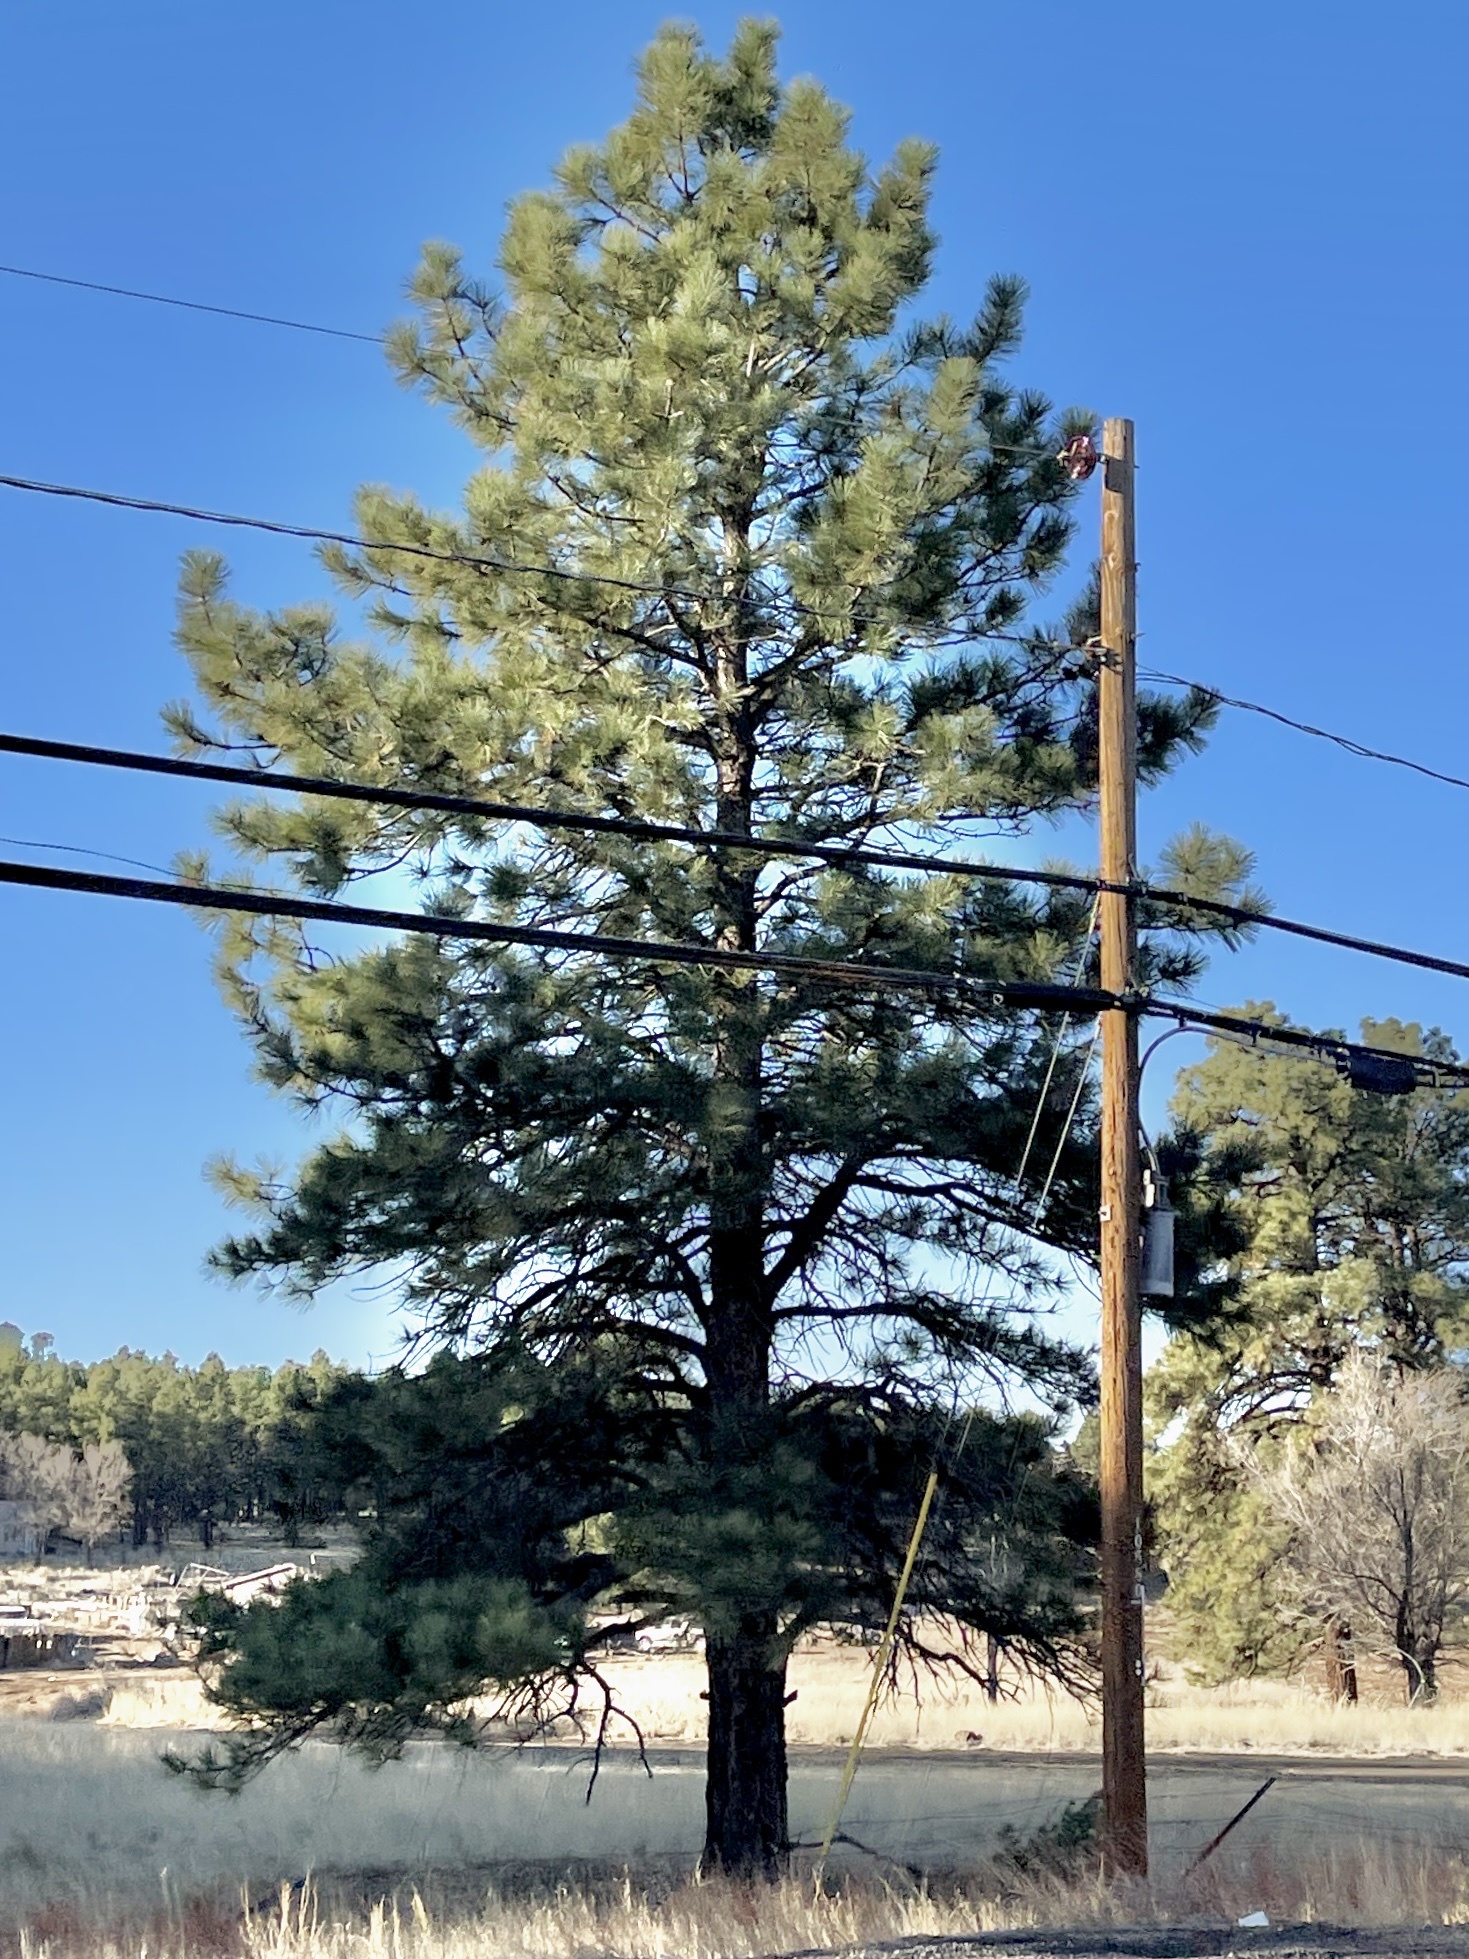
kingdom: Plantae
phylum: Tracheophyta
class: Pinopsida
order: Pinales
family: Pinaceae
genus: Pinus
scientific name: Pinus ponderosa
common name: Western yellow-pine
